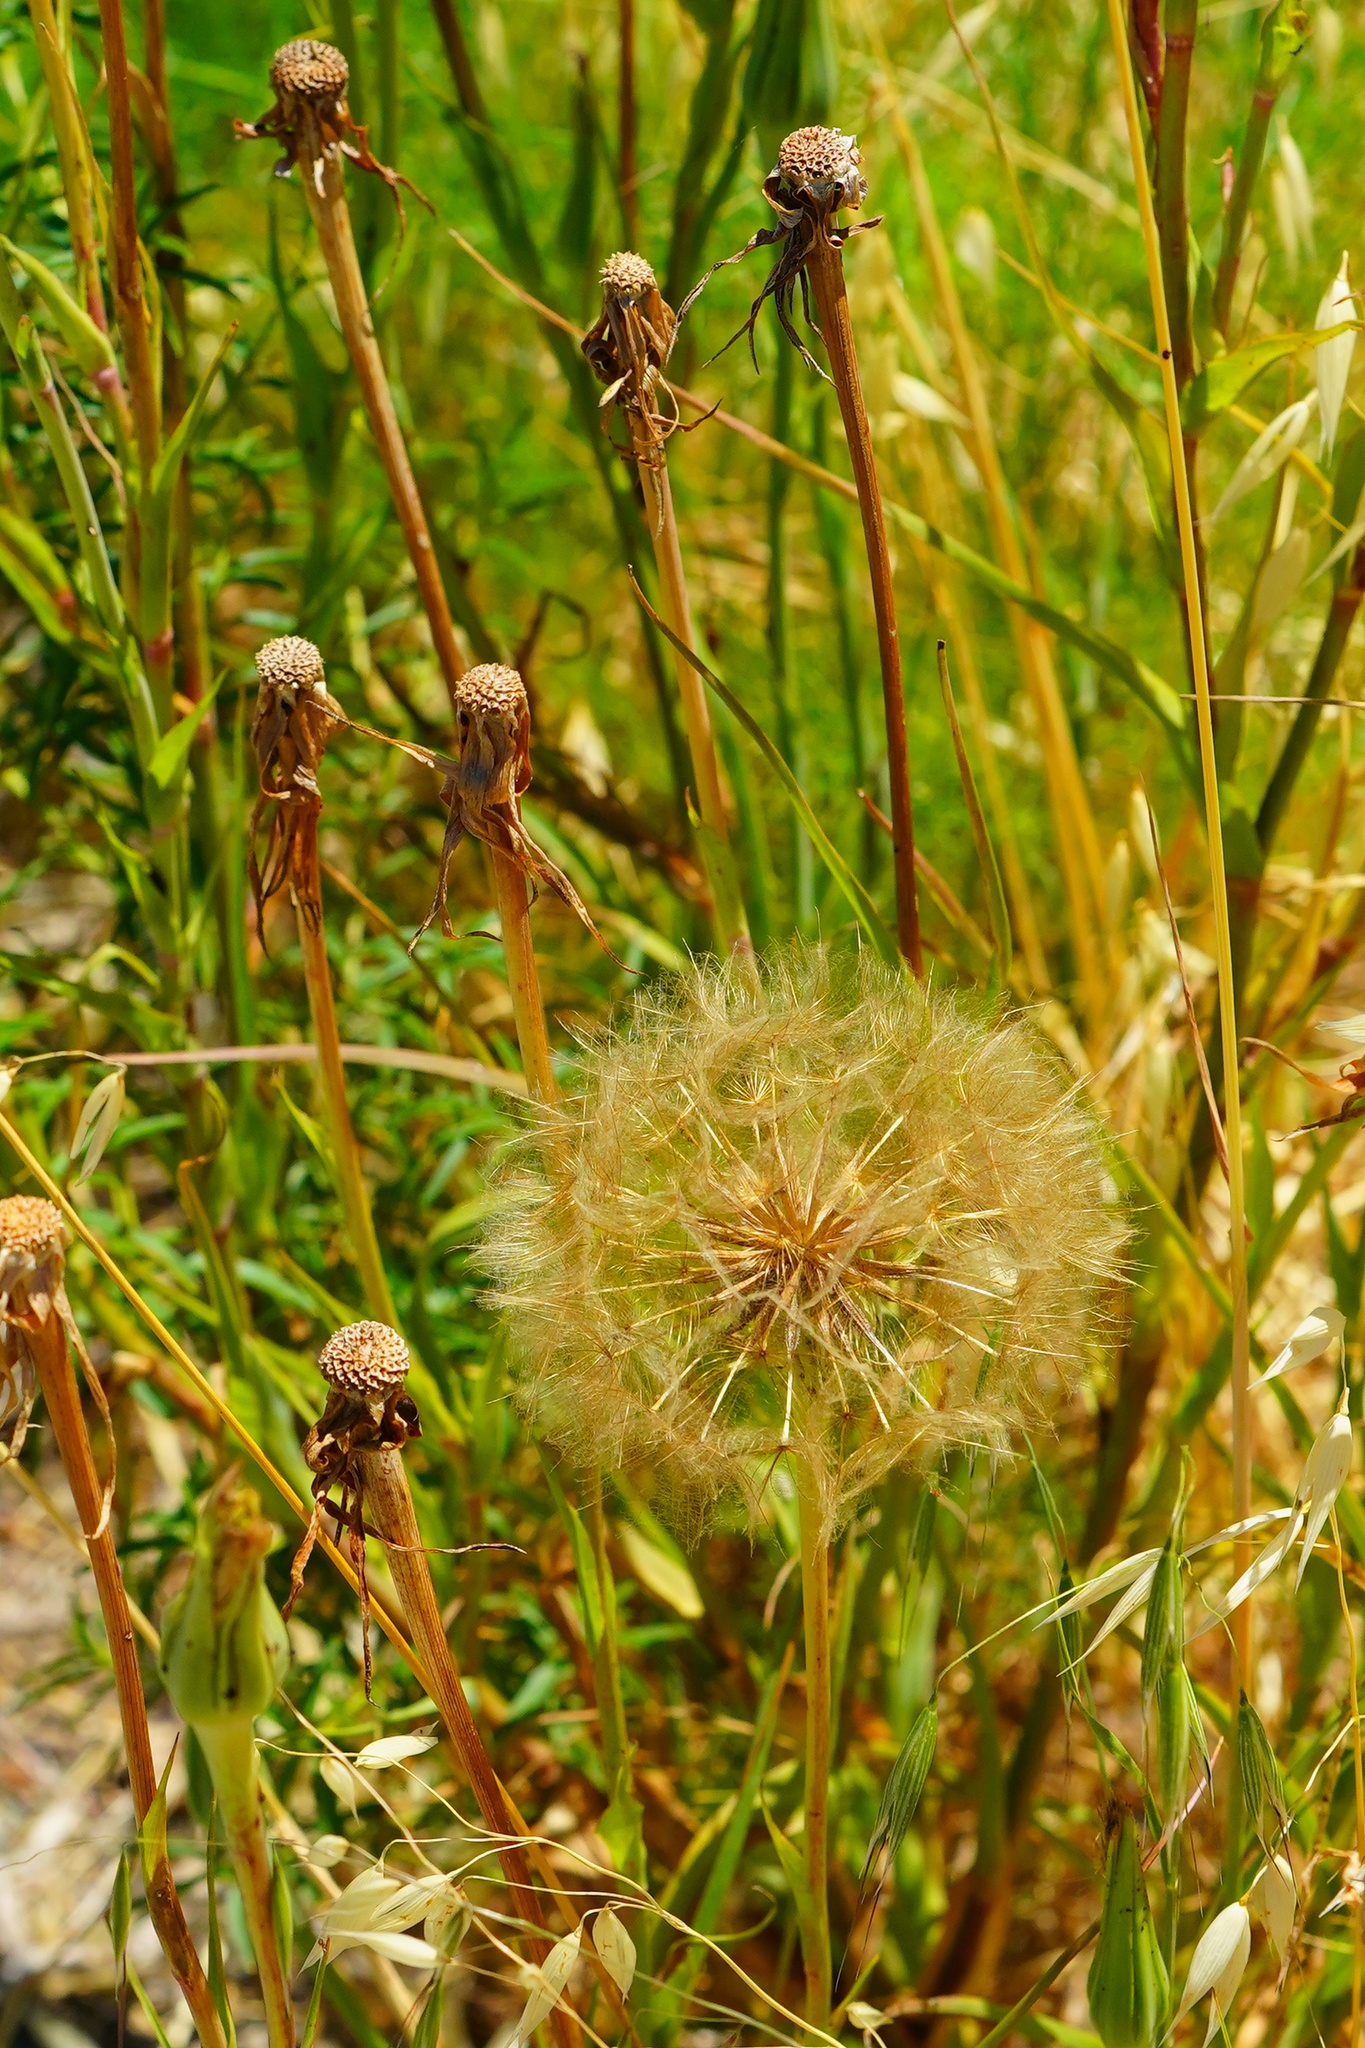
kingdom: Plantae
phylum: Tracheophyta
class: Magnoliopsida
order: Asterales
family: Asteraceae
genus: Tragopogon
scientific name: Tragopogon porrifolius
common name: Salsify
